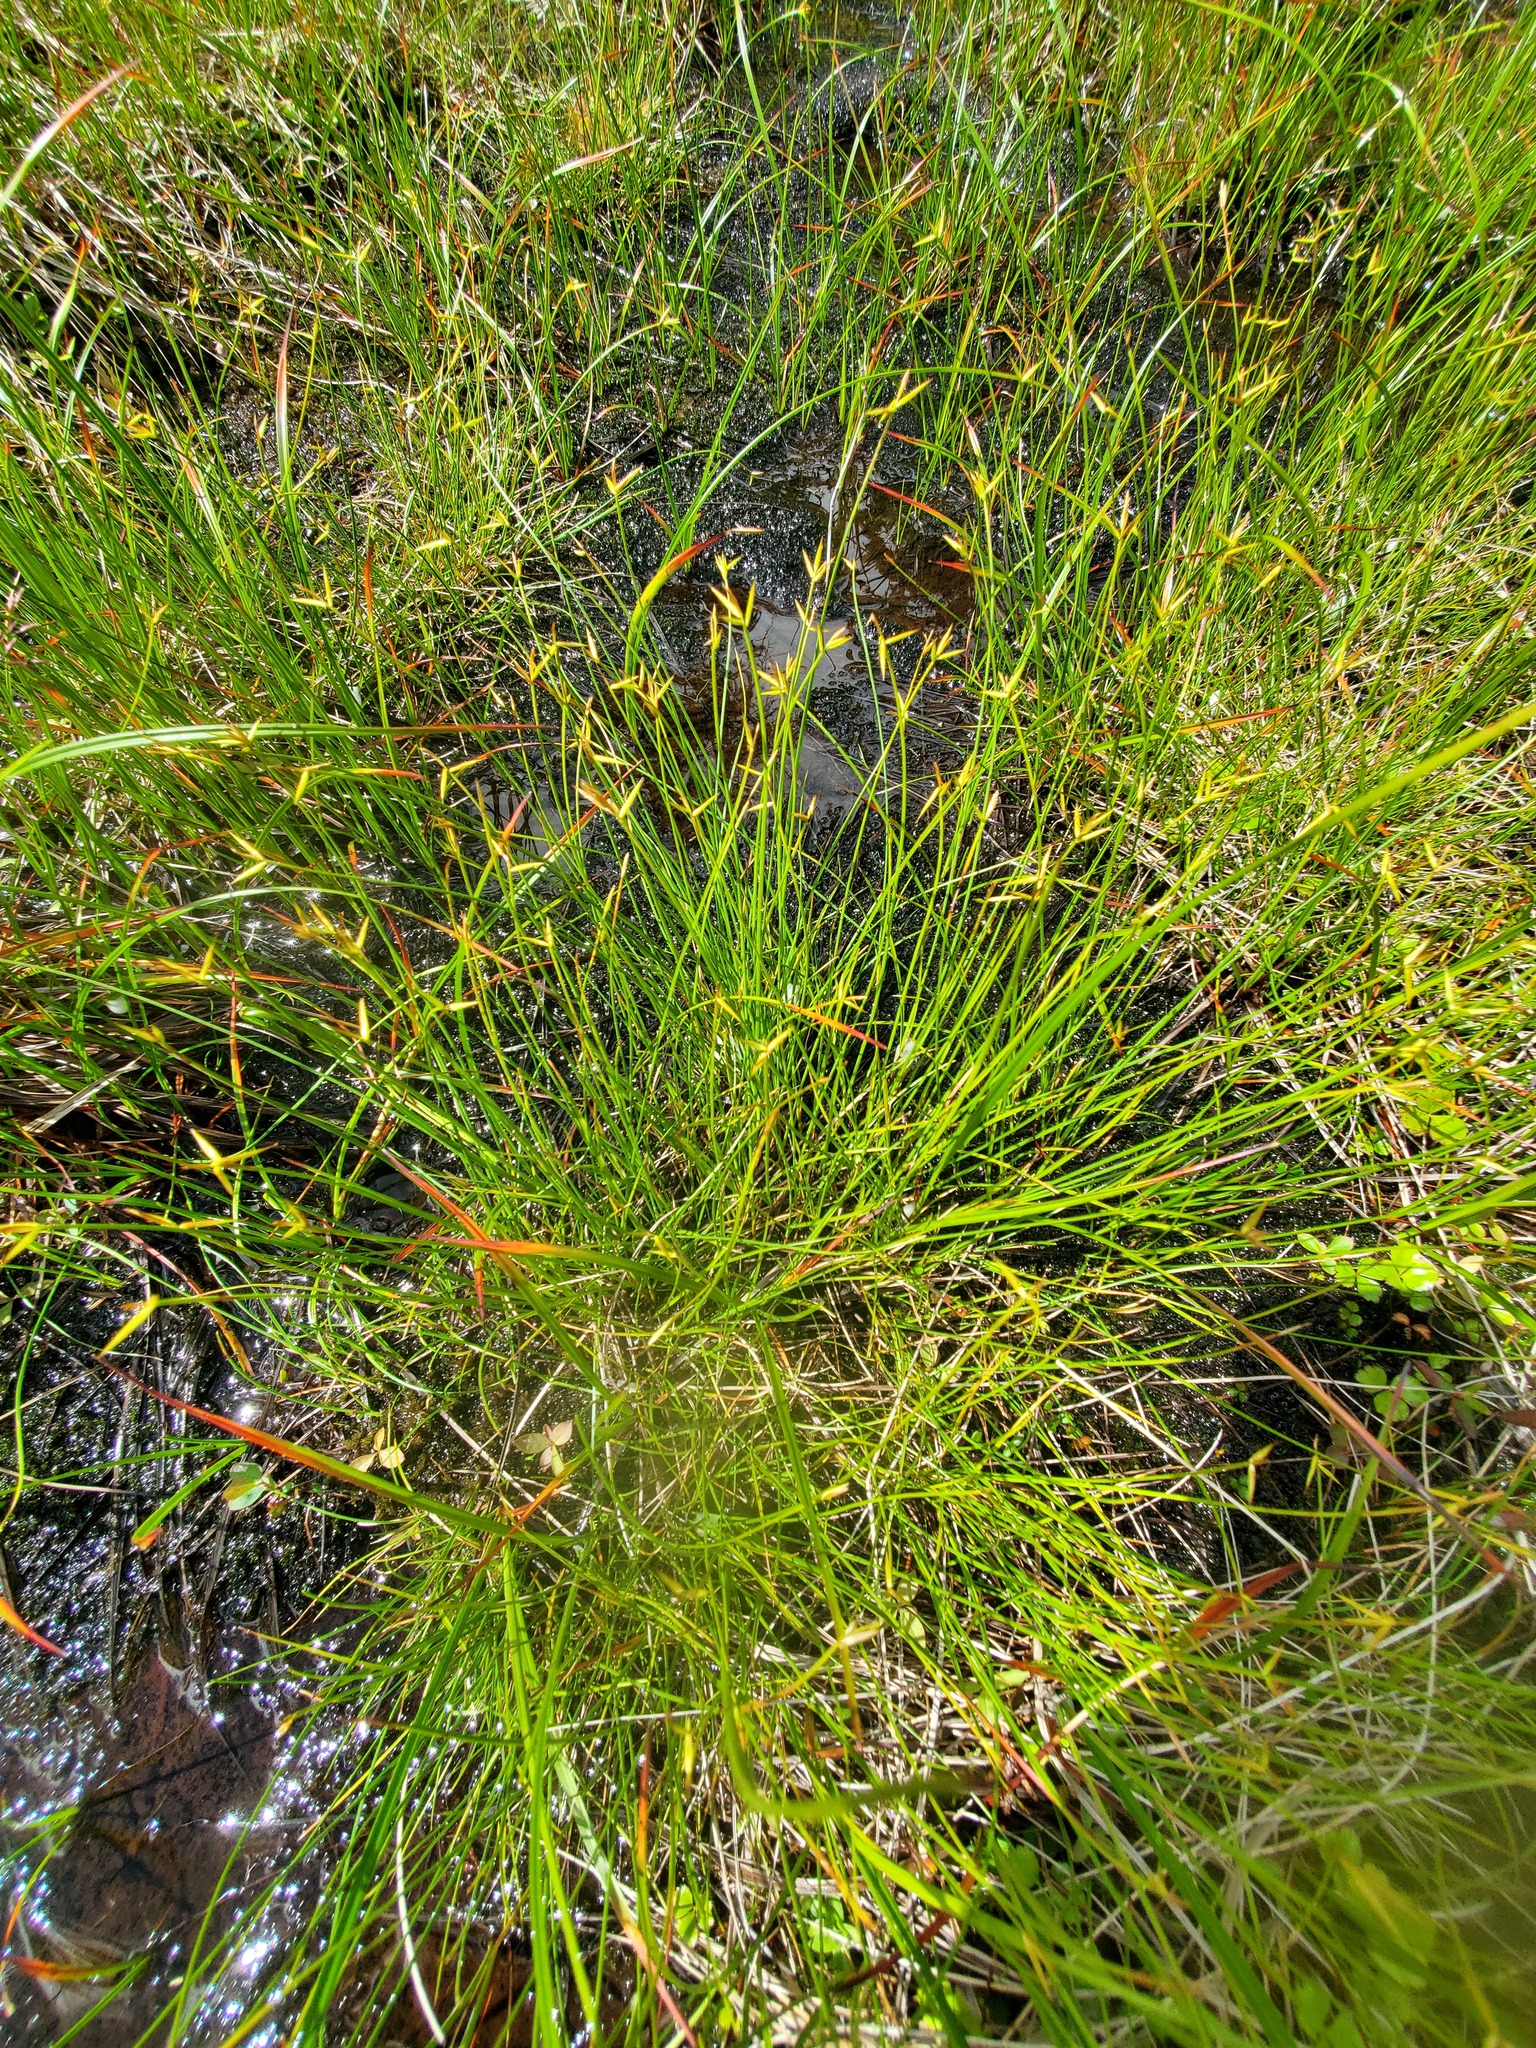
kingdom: Plantae
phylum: Tracheophyta
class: Liliopsida
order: Poales
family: Cyperaceae
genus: Carex
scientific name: Carex pauciflora
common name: Few-flowered sedge
